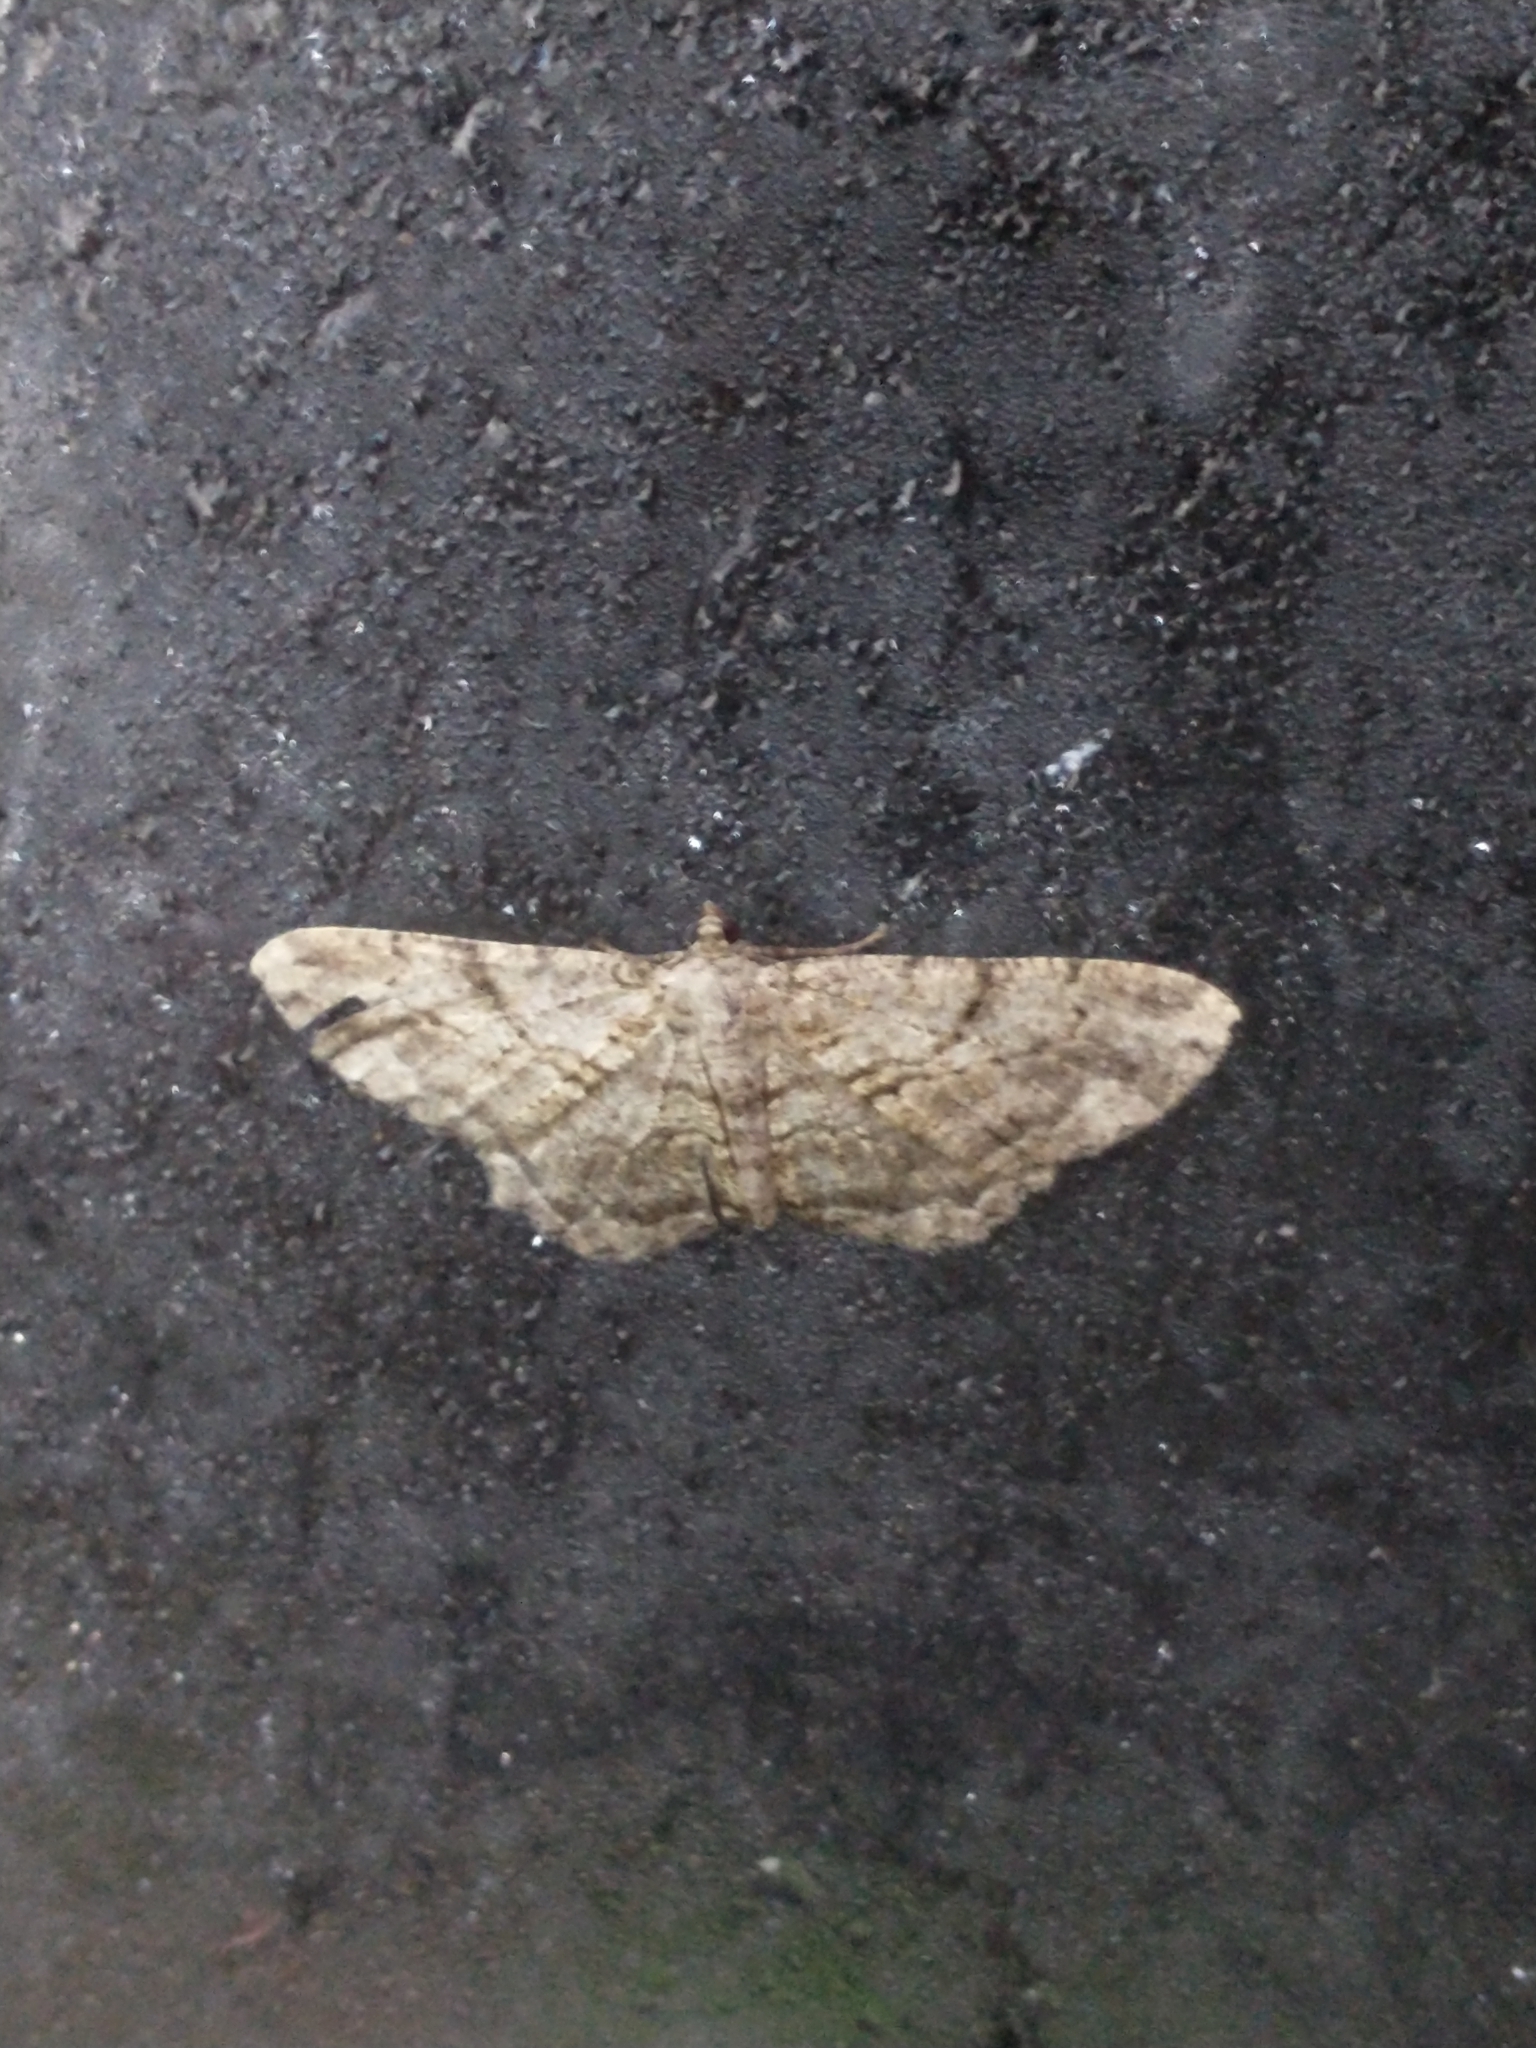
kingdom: Animalia
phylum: Arthropoda
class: Insecta
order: Lepidoptera
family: Geometridae
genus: Peribatodes
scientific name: Peribatodes rhomboidaria
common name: Willow beauty
